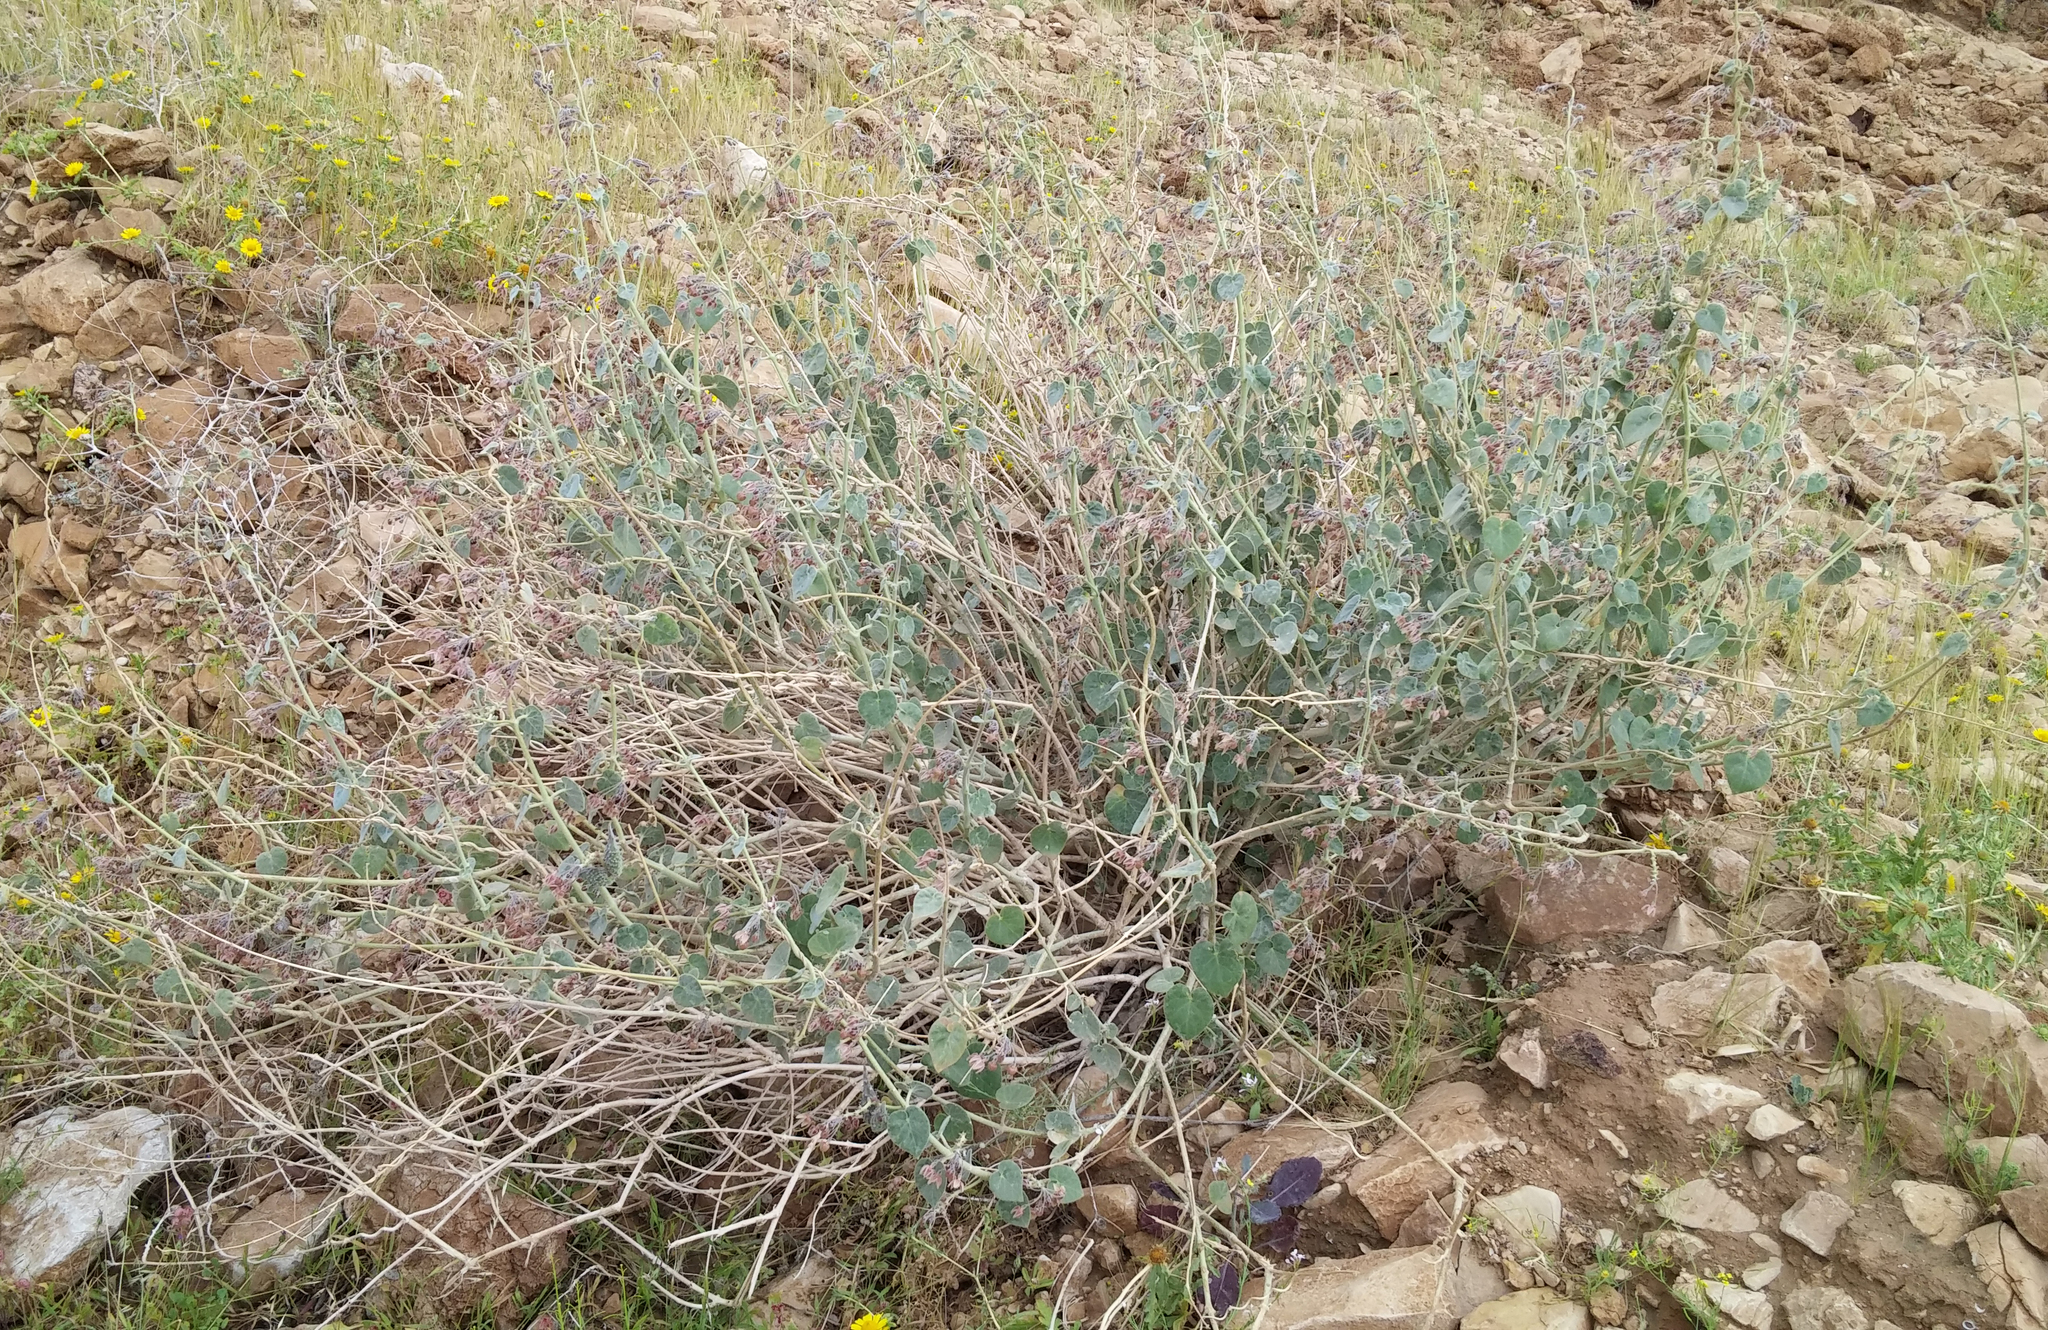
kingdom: Plantae
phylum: Tracheophyta
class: Magnoliopsida
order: Gentianales
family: Apocynaceae
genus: Pergularia
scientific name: Pergularia tomentosa
